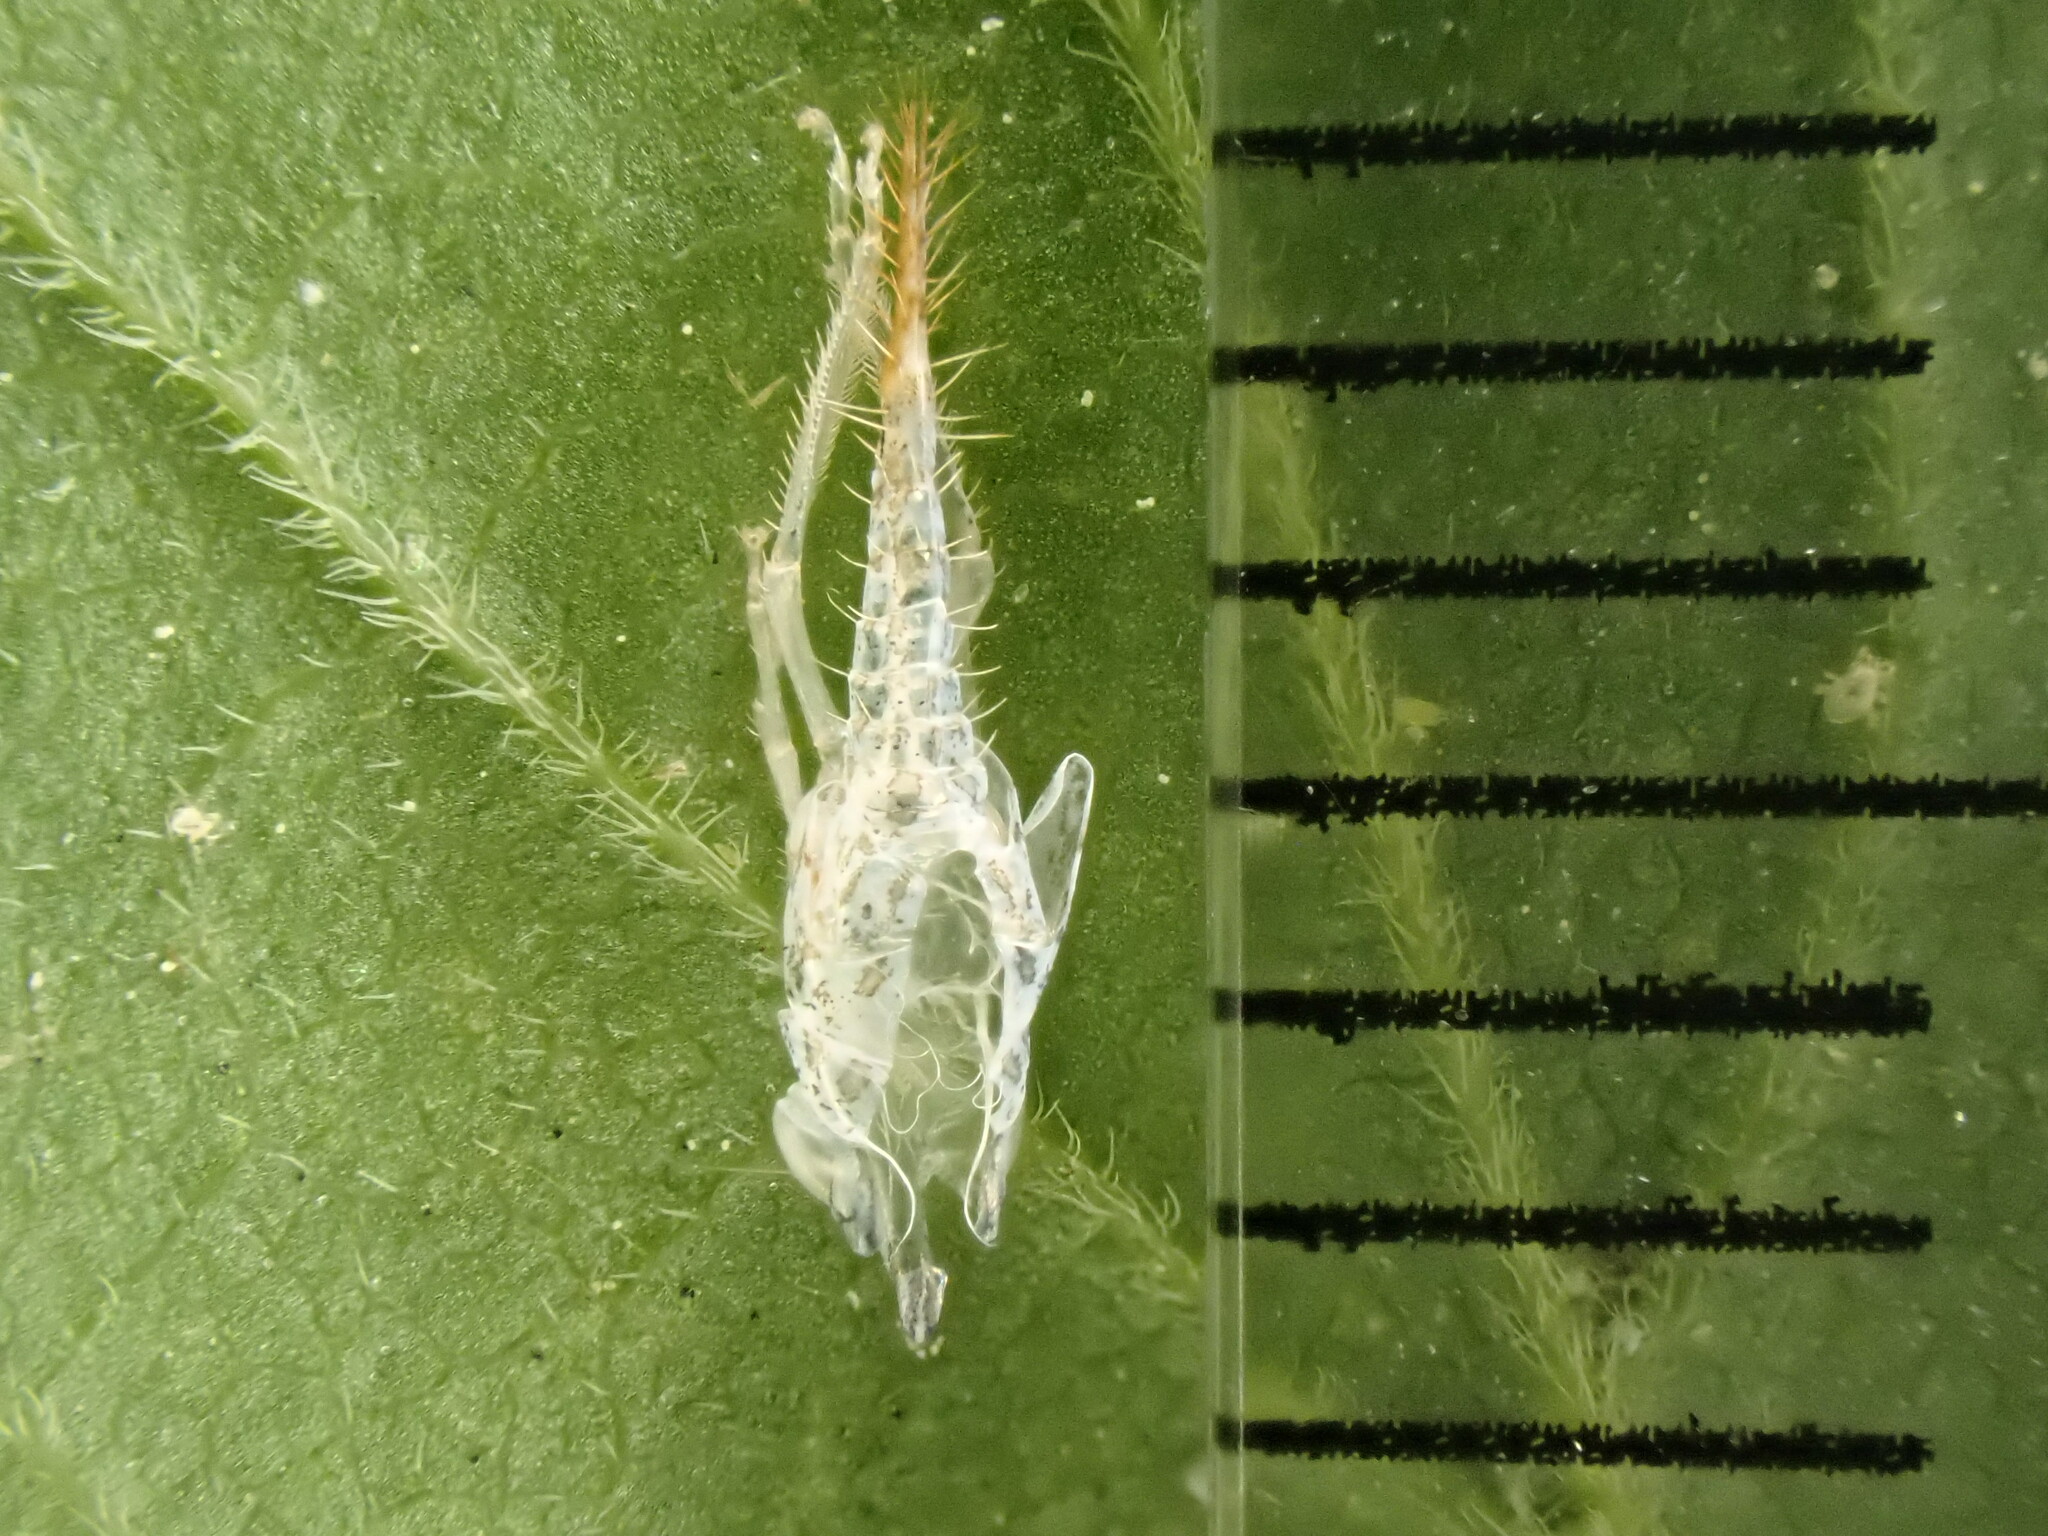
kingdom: Animalia
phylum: Arthropoda
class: Insecta
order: Hemiptera
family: Cicadellidae
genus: Japananus
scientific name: Japananus hyalinus
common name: The japanese maple leafhopper
